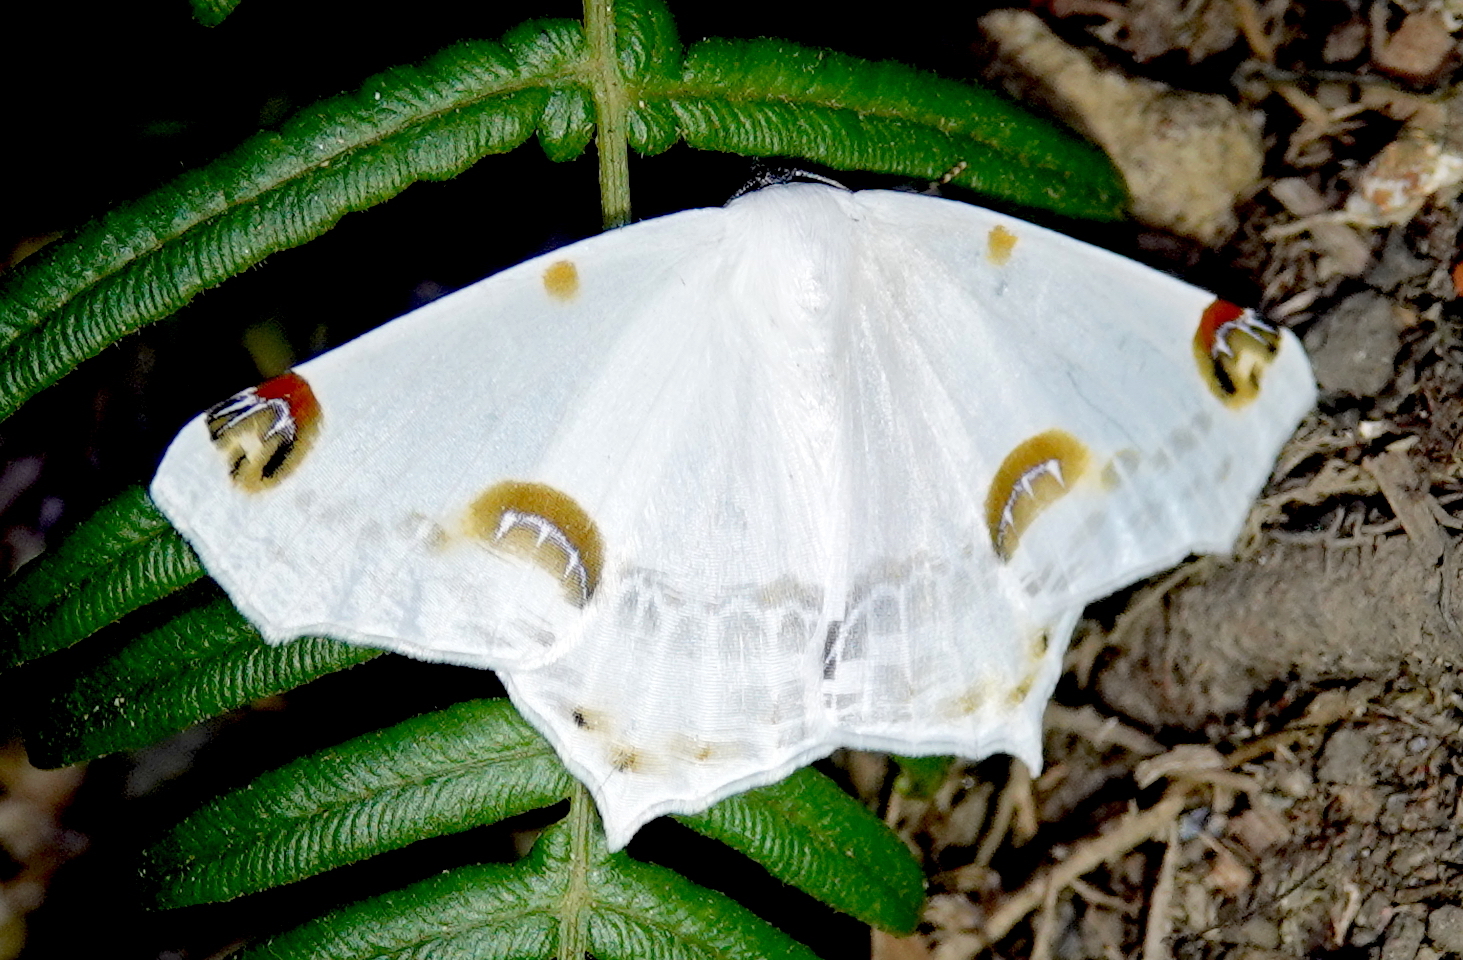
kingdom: Animalia
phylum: Arthropoda
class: Insecta
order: Lepidoptera
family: Geometridae
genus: Sericoptera
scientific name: Sericoptera mahometaria
